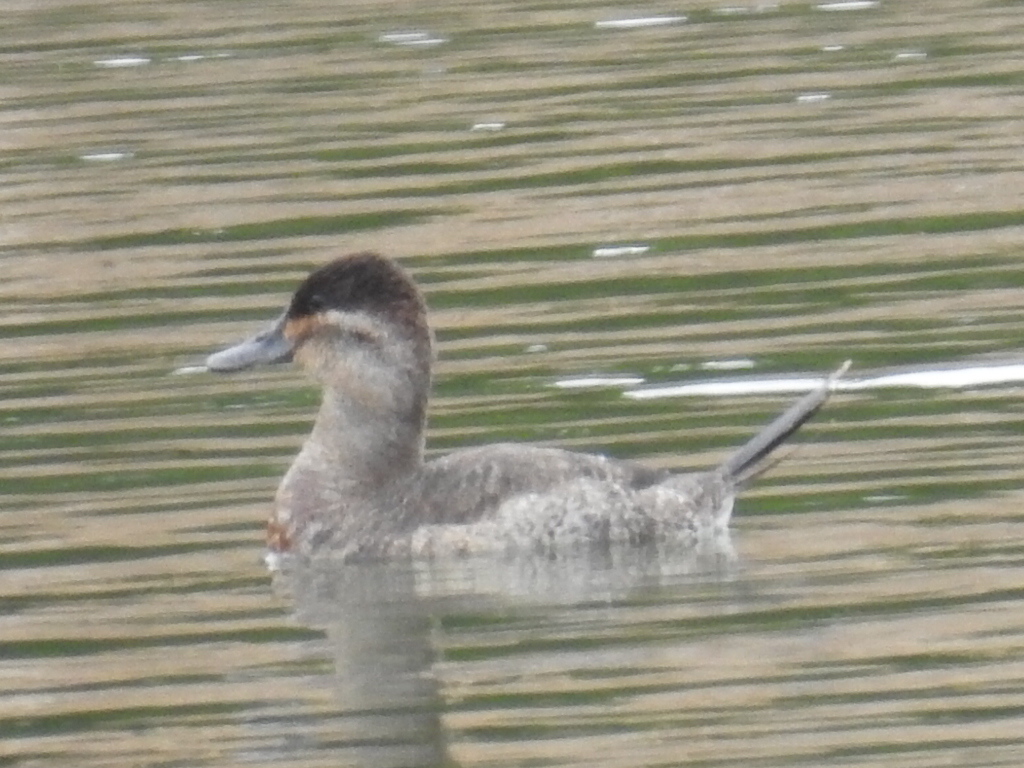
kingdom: Animalia
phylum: Chordata
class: Aves
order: Anseriformes
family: Anatidae
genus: Oxyura
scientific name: Oxyura jamaicensis
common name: Ruddy duck
